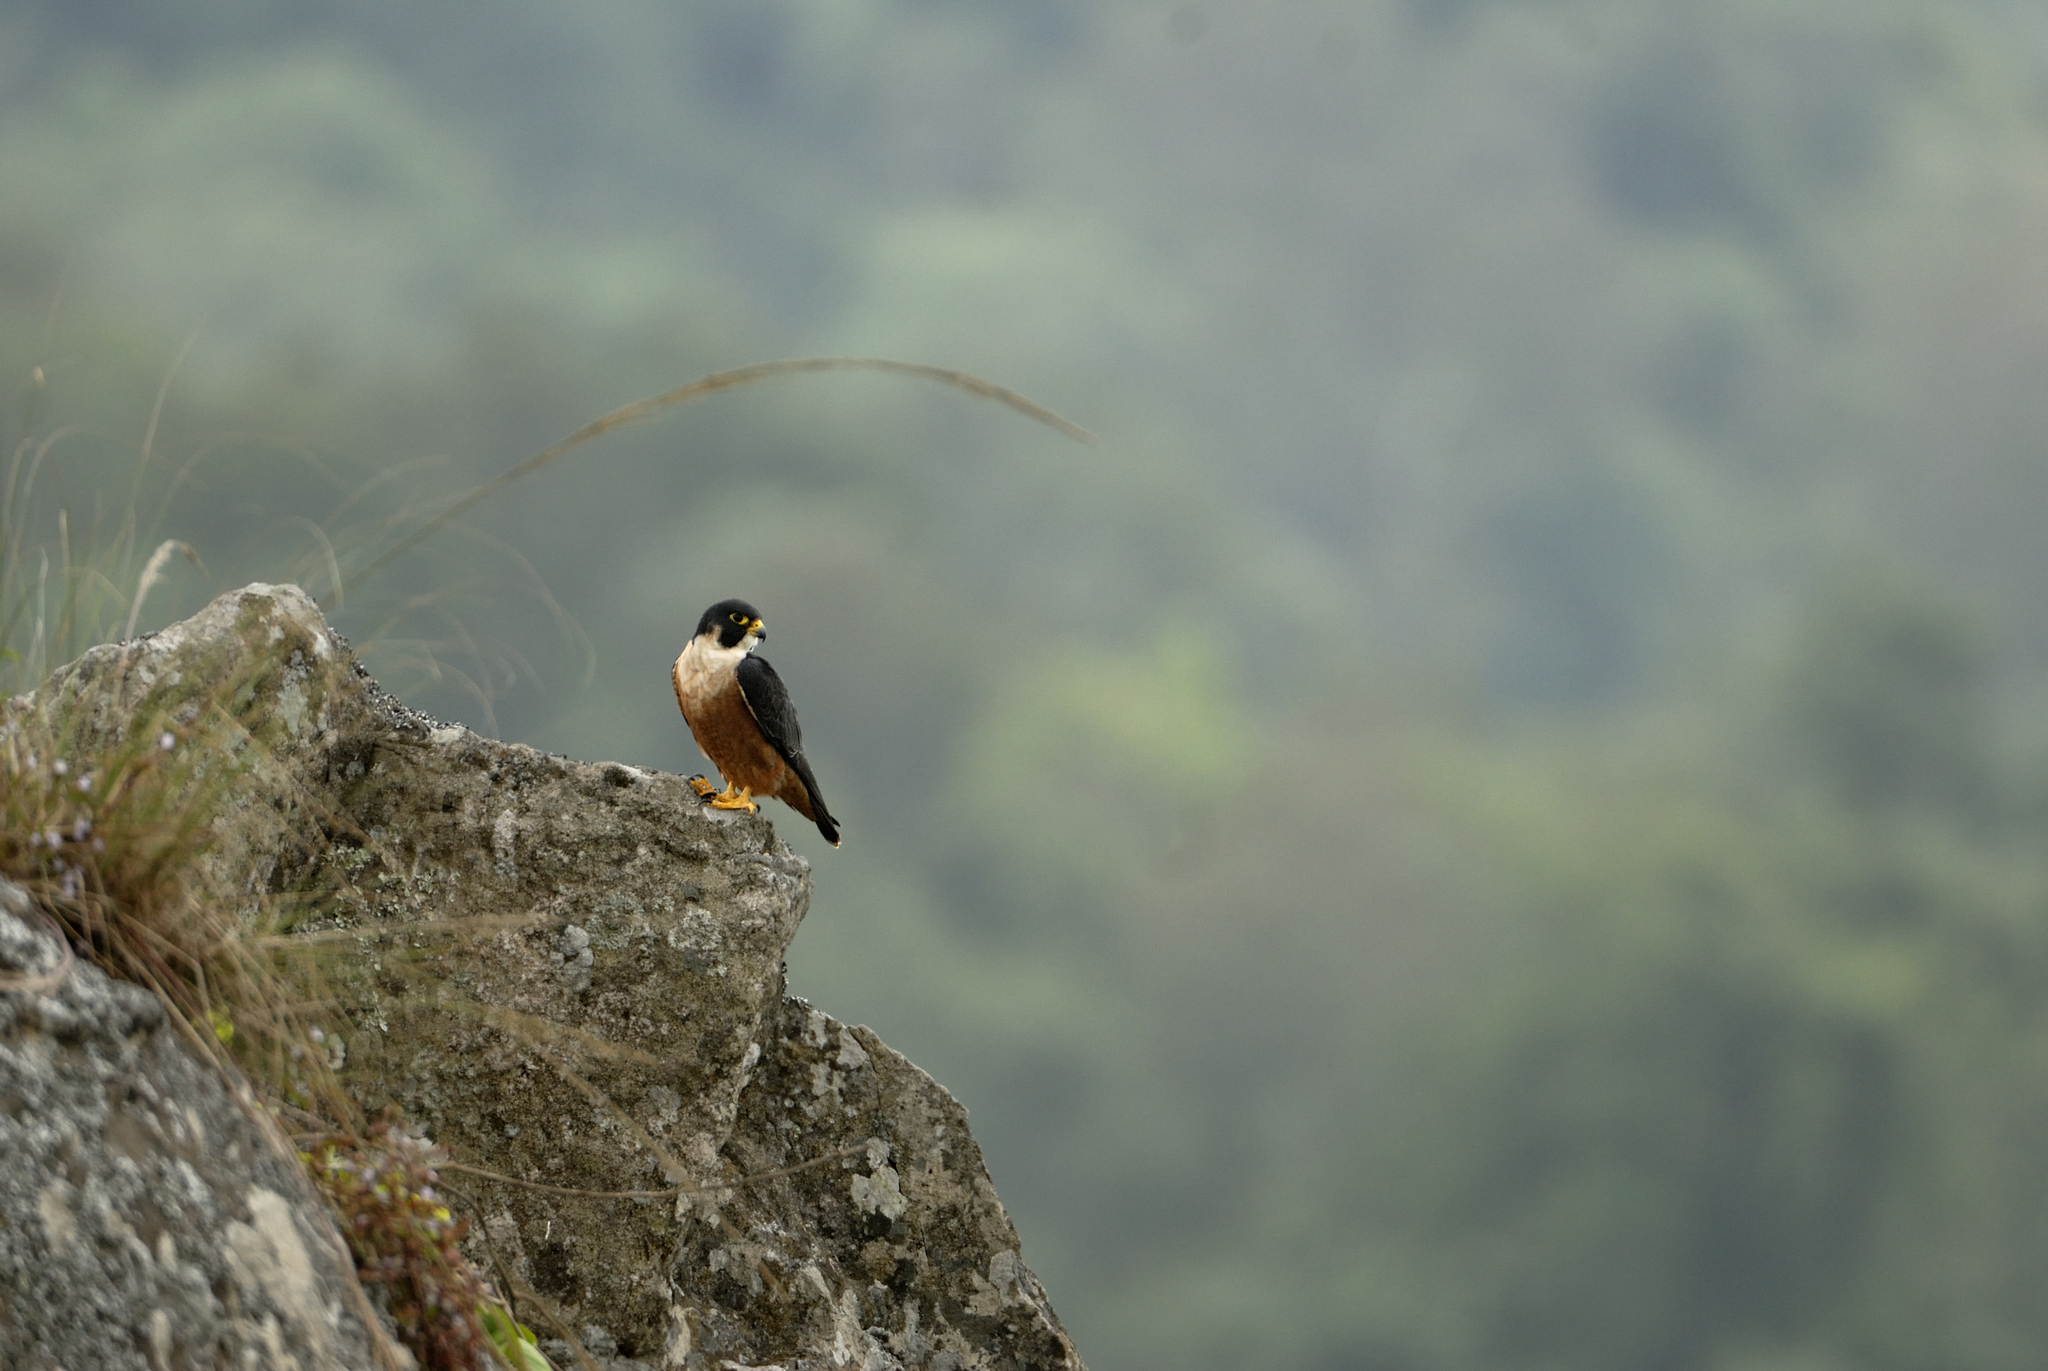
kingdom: Animalia
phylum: Chordata
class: Aves
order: Falconiformes
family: Falconidae
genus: Falco
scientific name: Falco peregrinus
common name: Peregrine falcon
